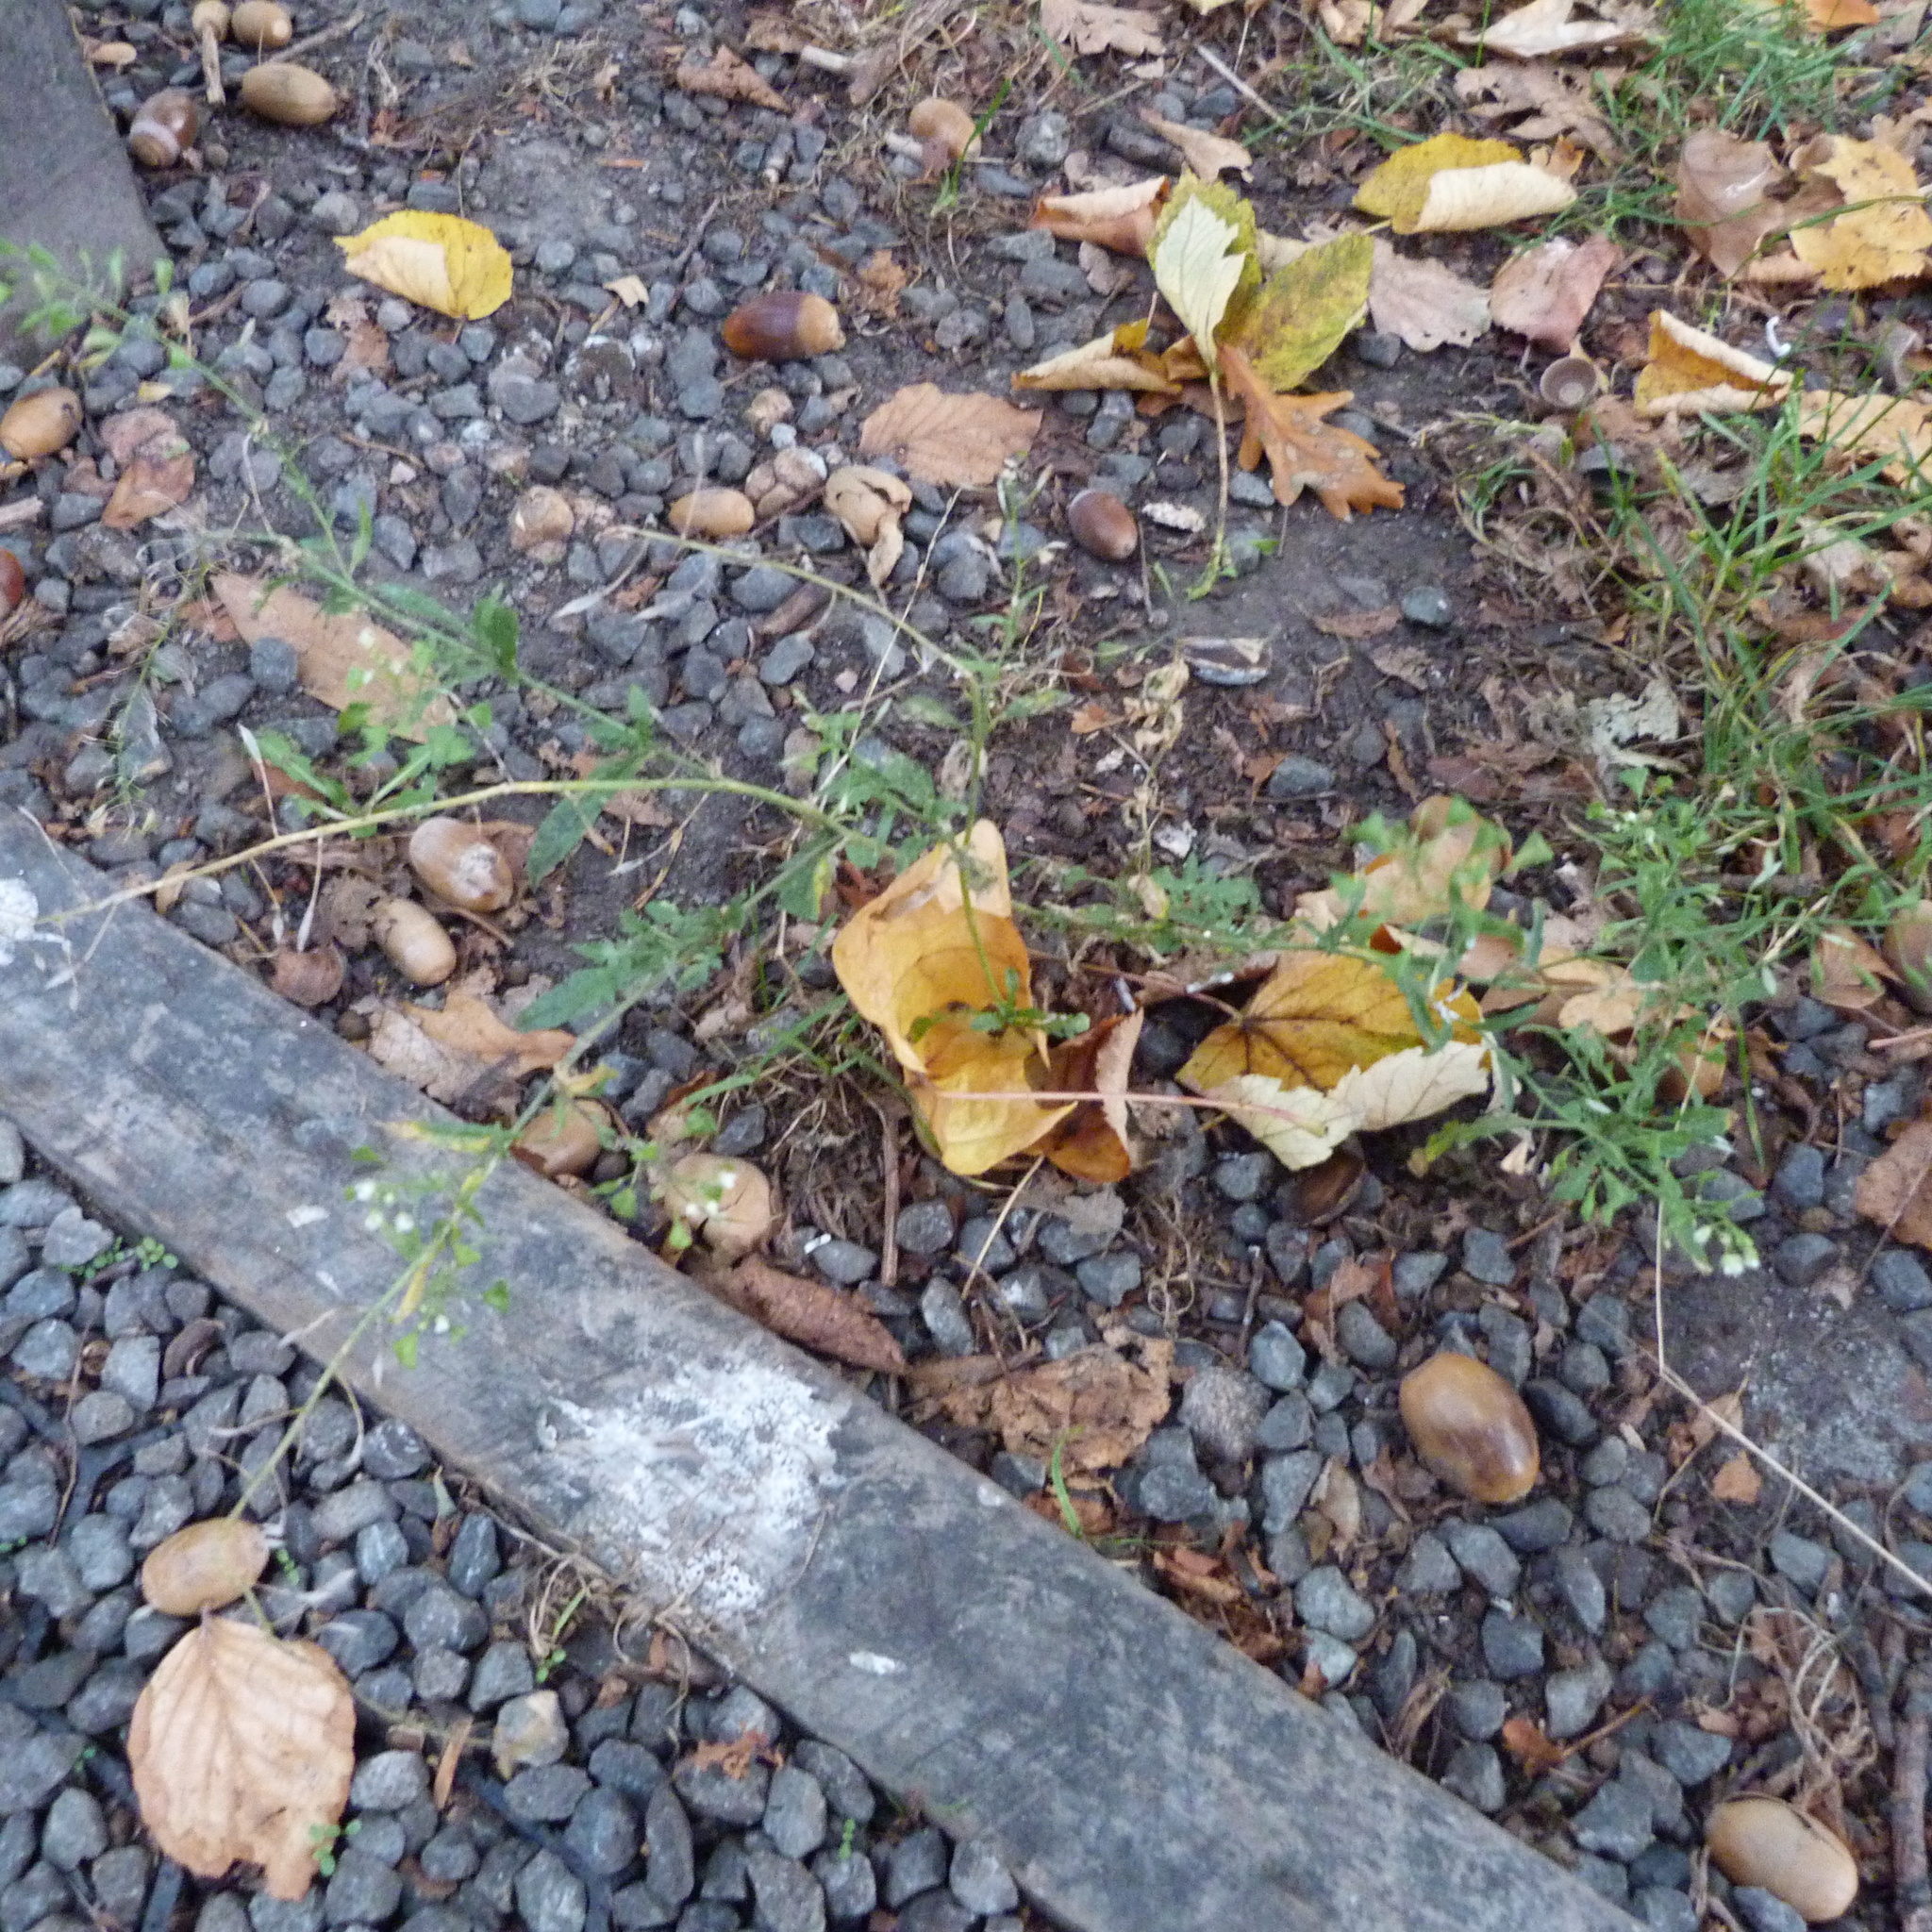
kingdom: Plantae
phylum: Tracheophyta
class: Magnoliopsida
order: Brassicales
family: Brassicaceae
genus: Capsella
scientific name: Capsella bursa-pastoris
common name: Shepherd's purse
